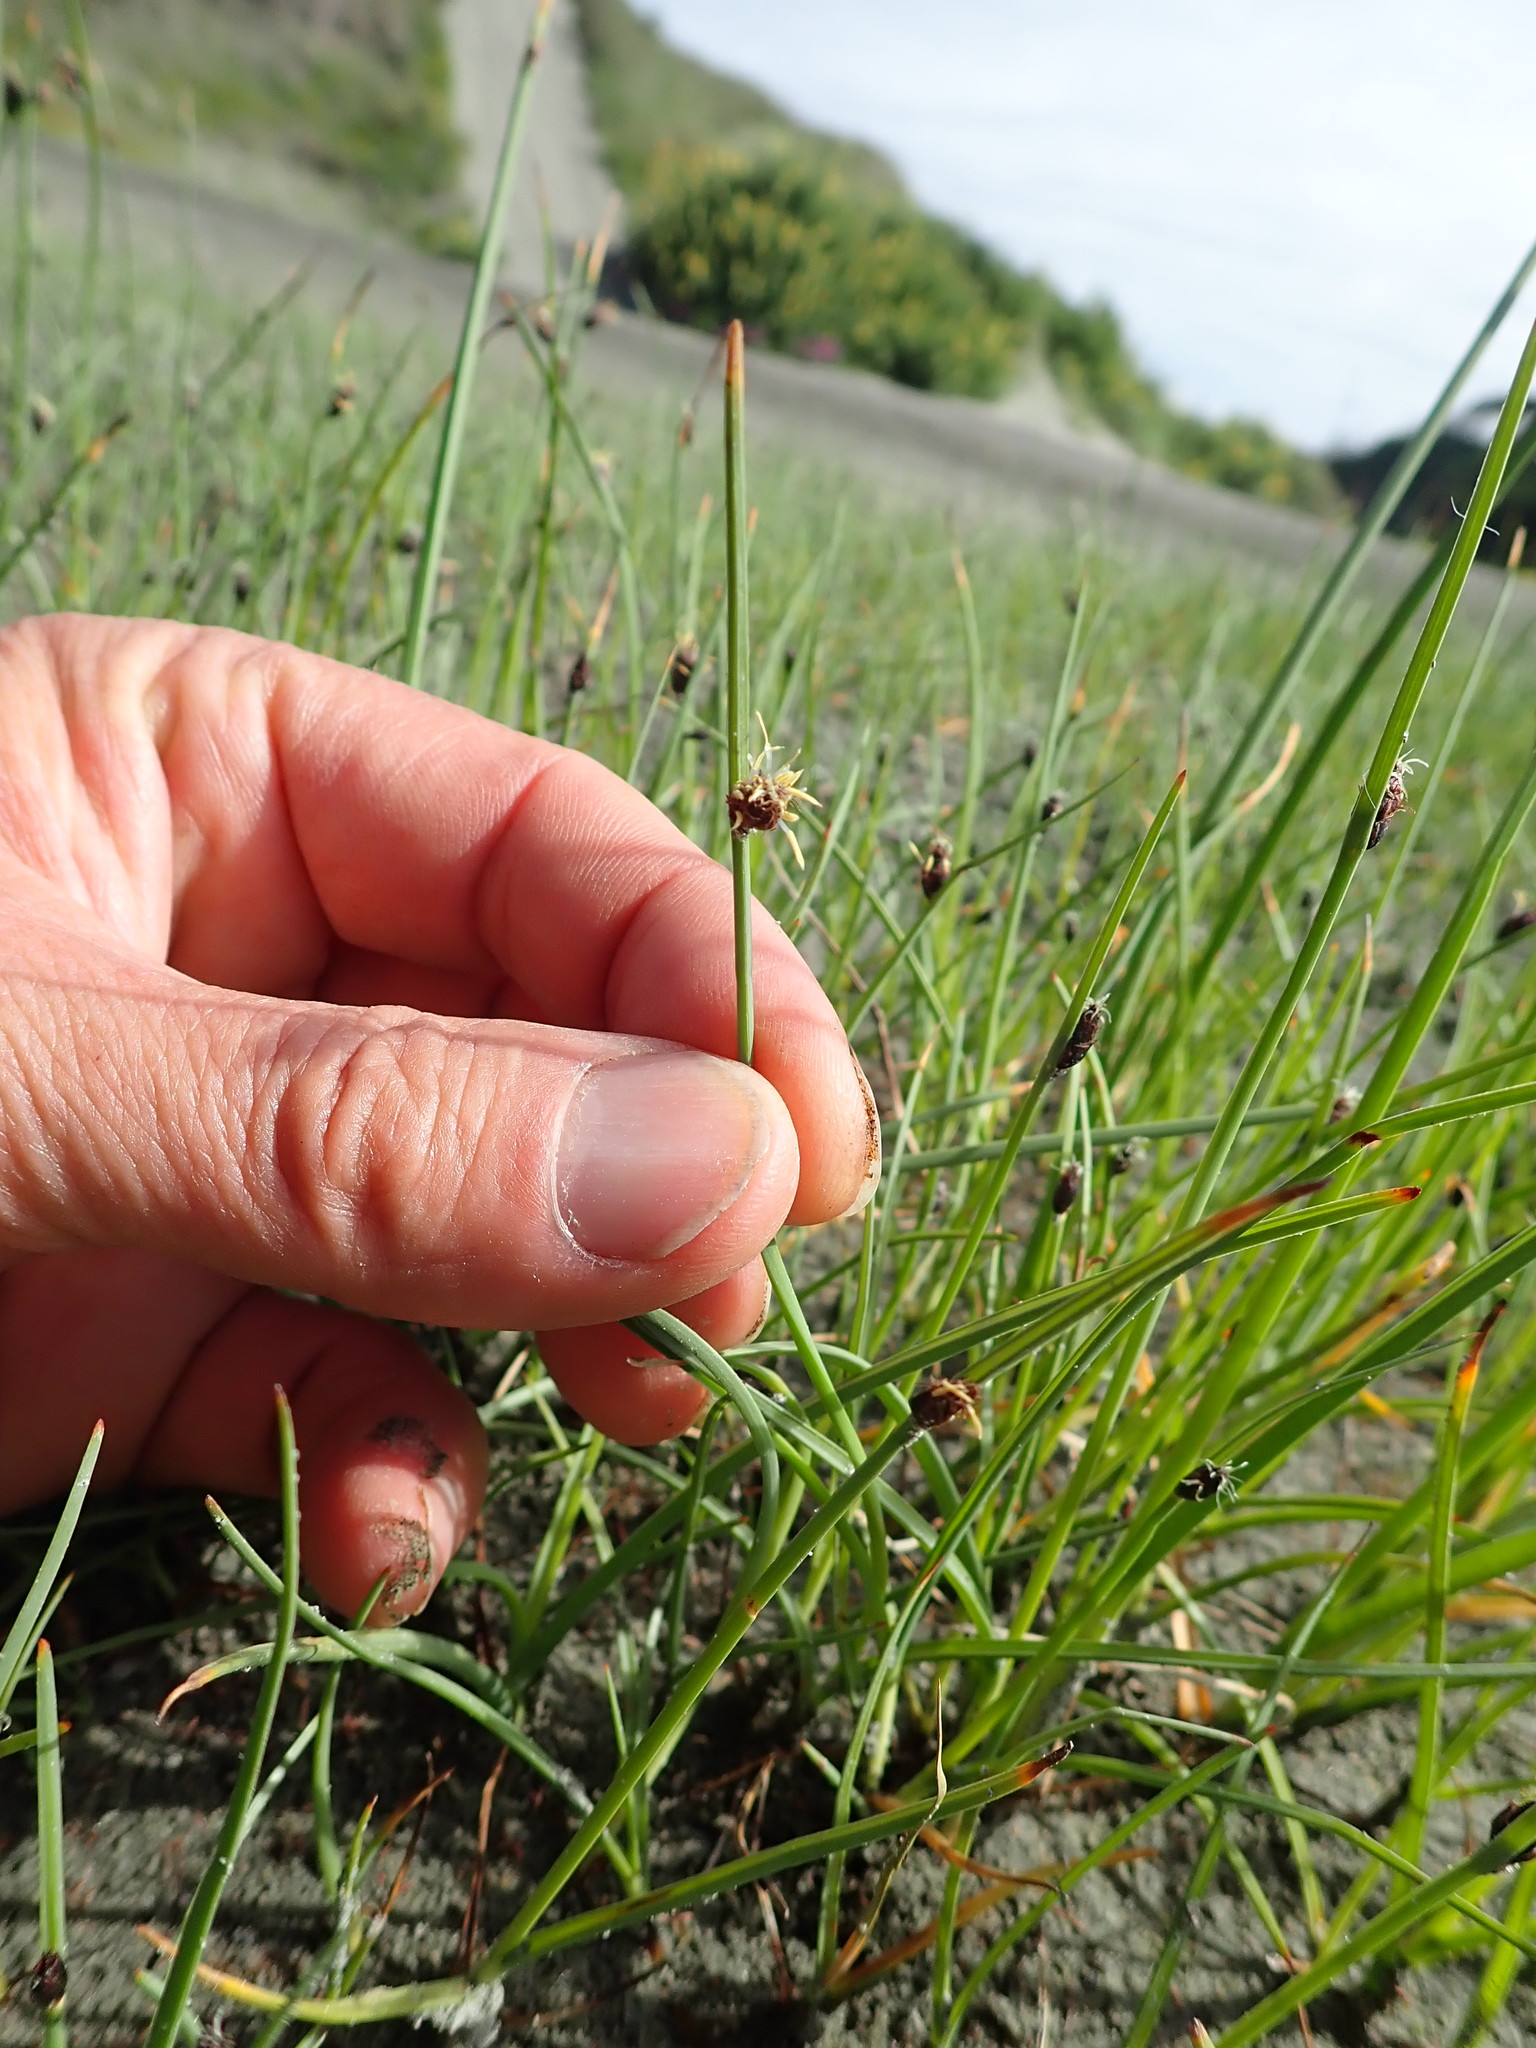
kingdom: Plantae
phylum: Tracheophyta
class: Liliopsida
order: Poales
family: Cyperaceae
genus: Schoenoplectus
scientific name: Schoenoplectus pungens
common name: Sharp club-rush
